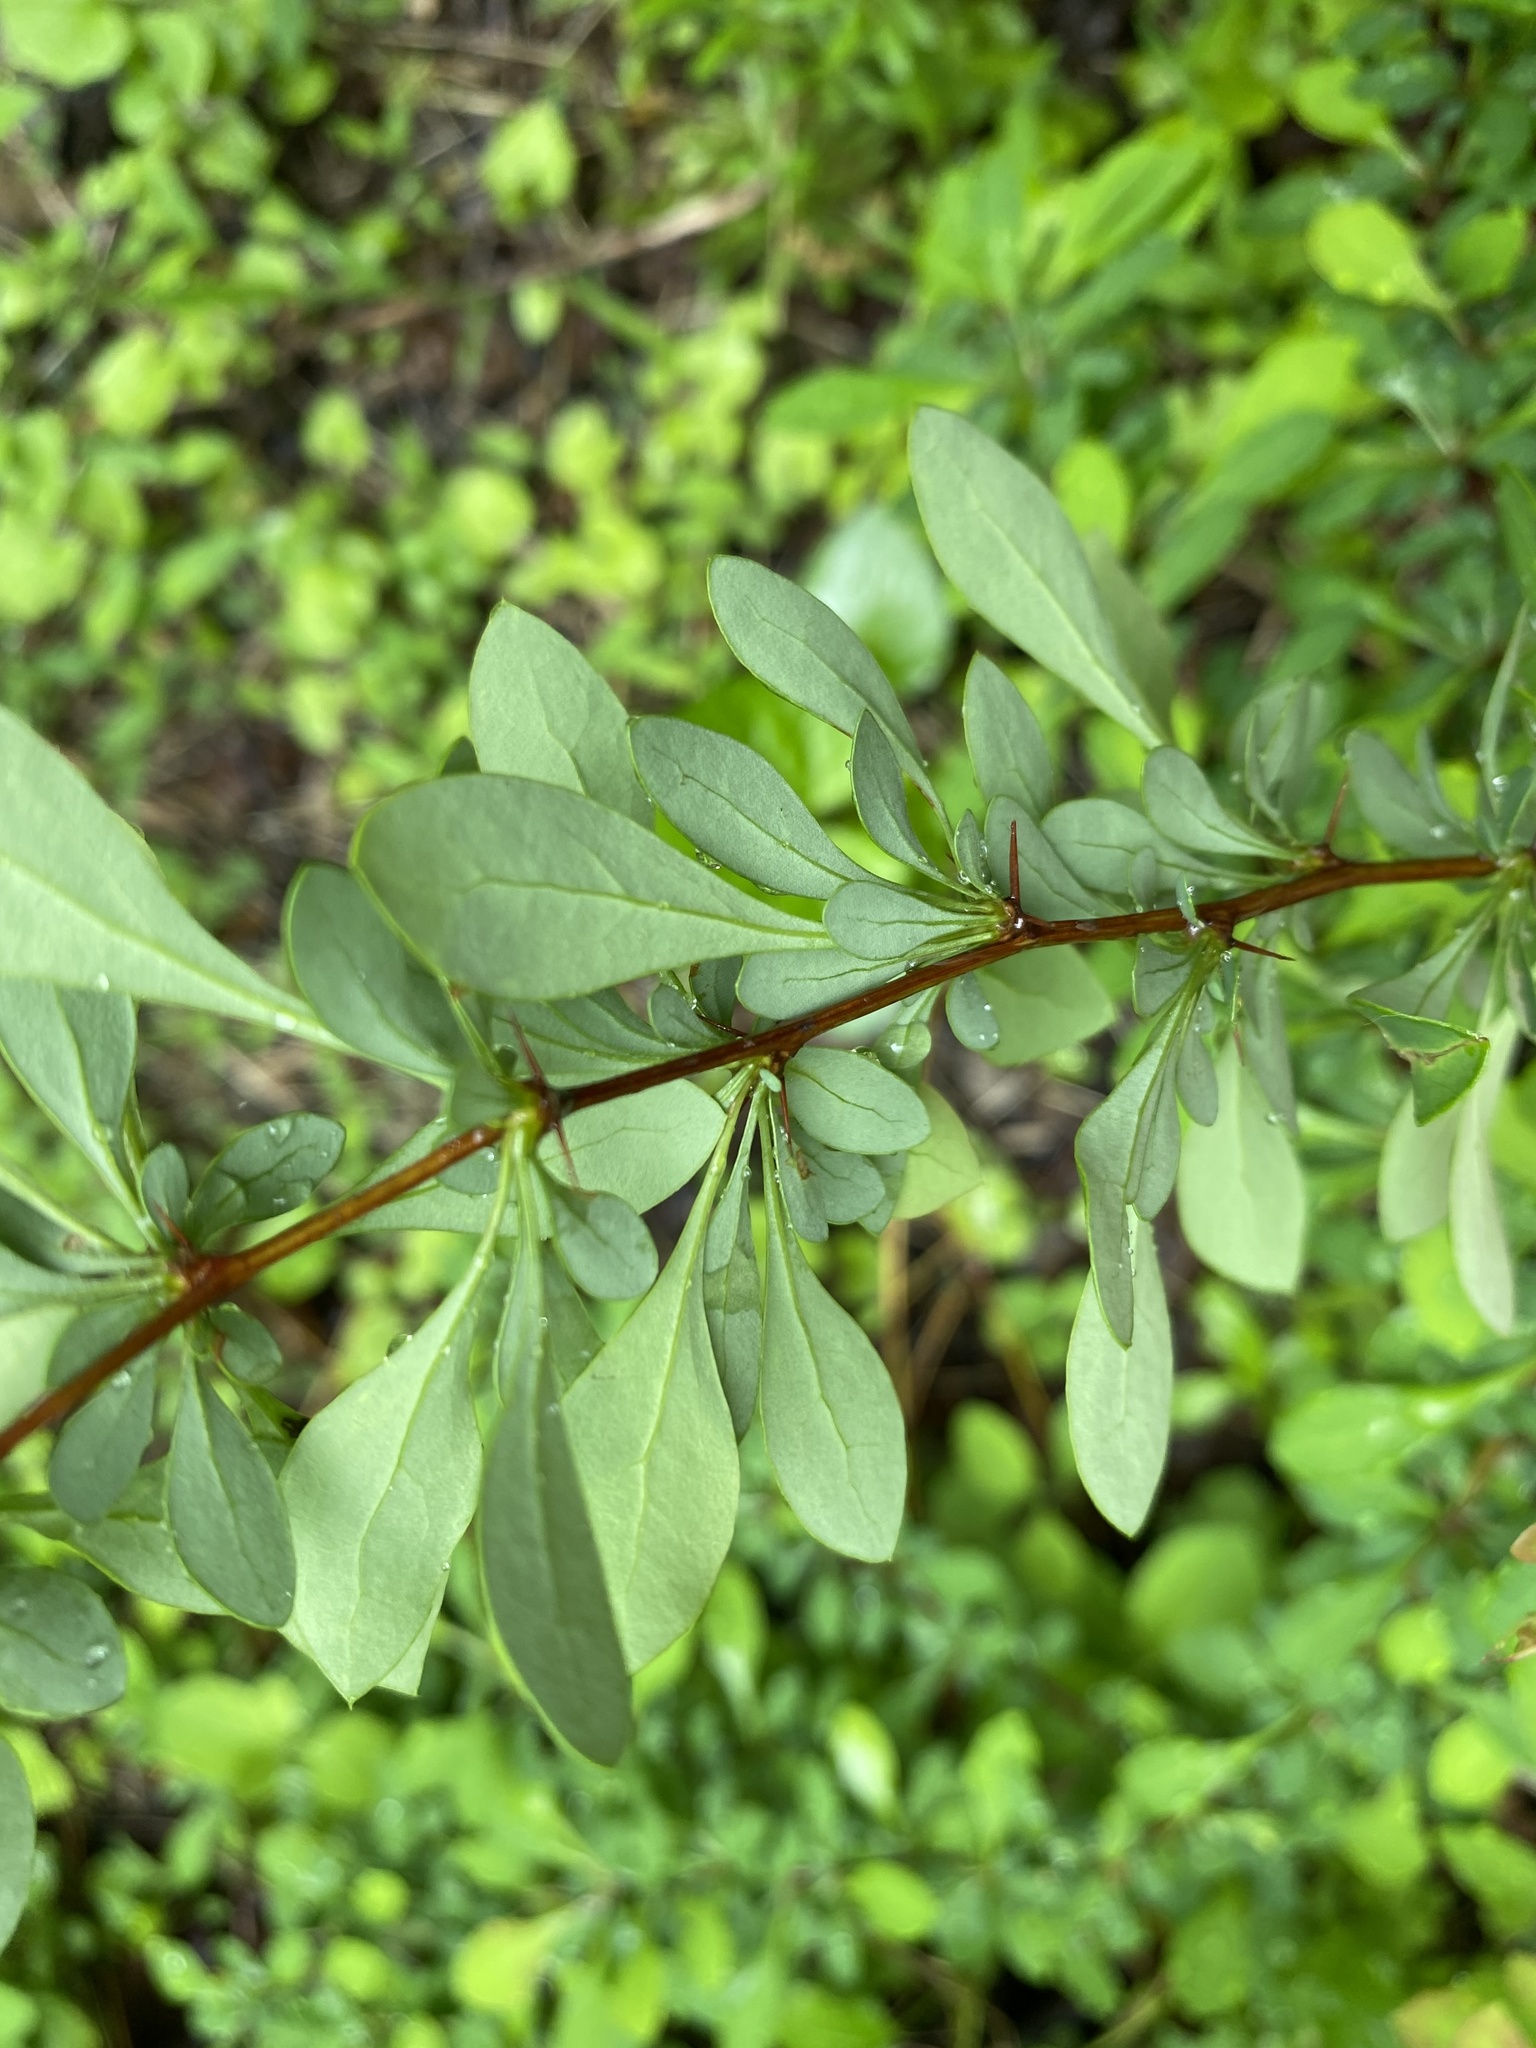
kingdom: Plantae
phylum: Tracheophyta
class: Magnoliopsida
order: Ranunculales
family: Berberidaceae
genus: Berberis
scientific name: Berberis thunbergii
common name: Japanese barberry
